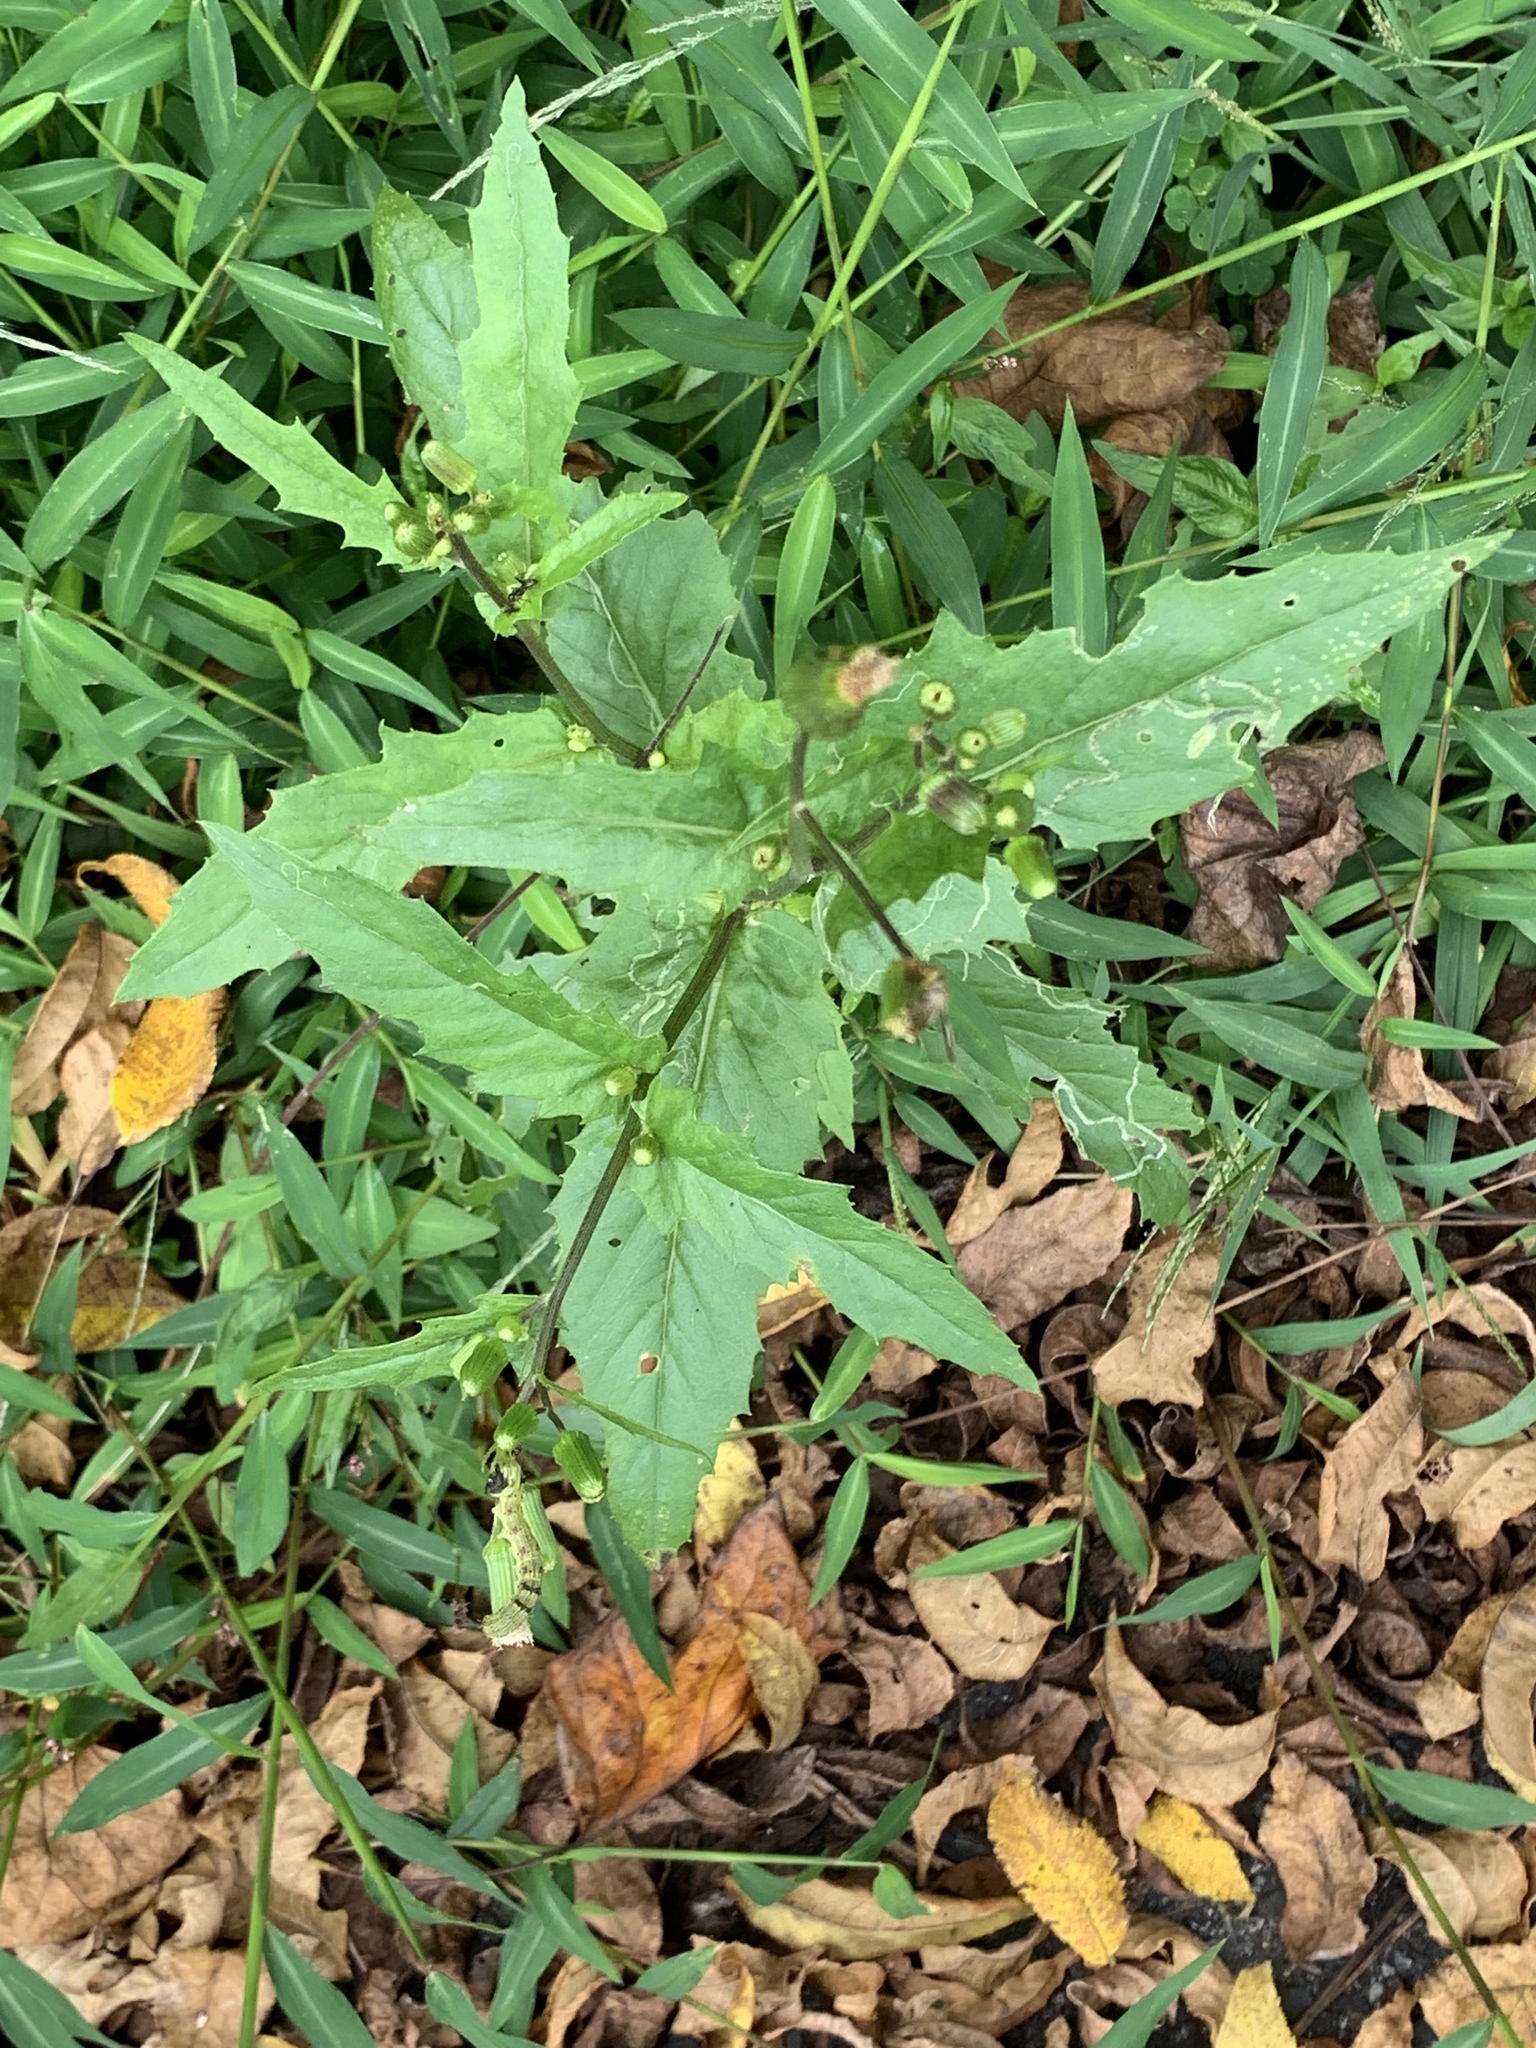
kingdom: Plantae
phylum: Tracheophyta
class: Magnoliopsida
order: Asterales
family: Asteraceae
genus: Erechtites
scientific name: Erechtites hieraciifolius
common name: American burnweed
